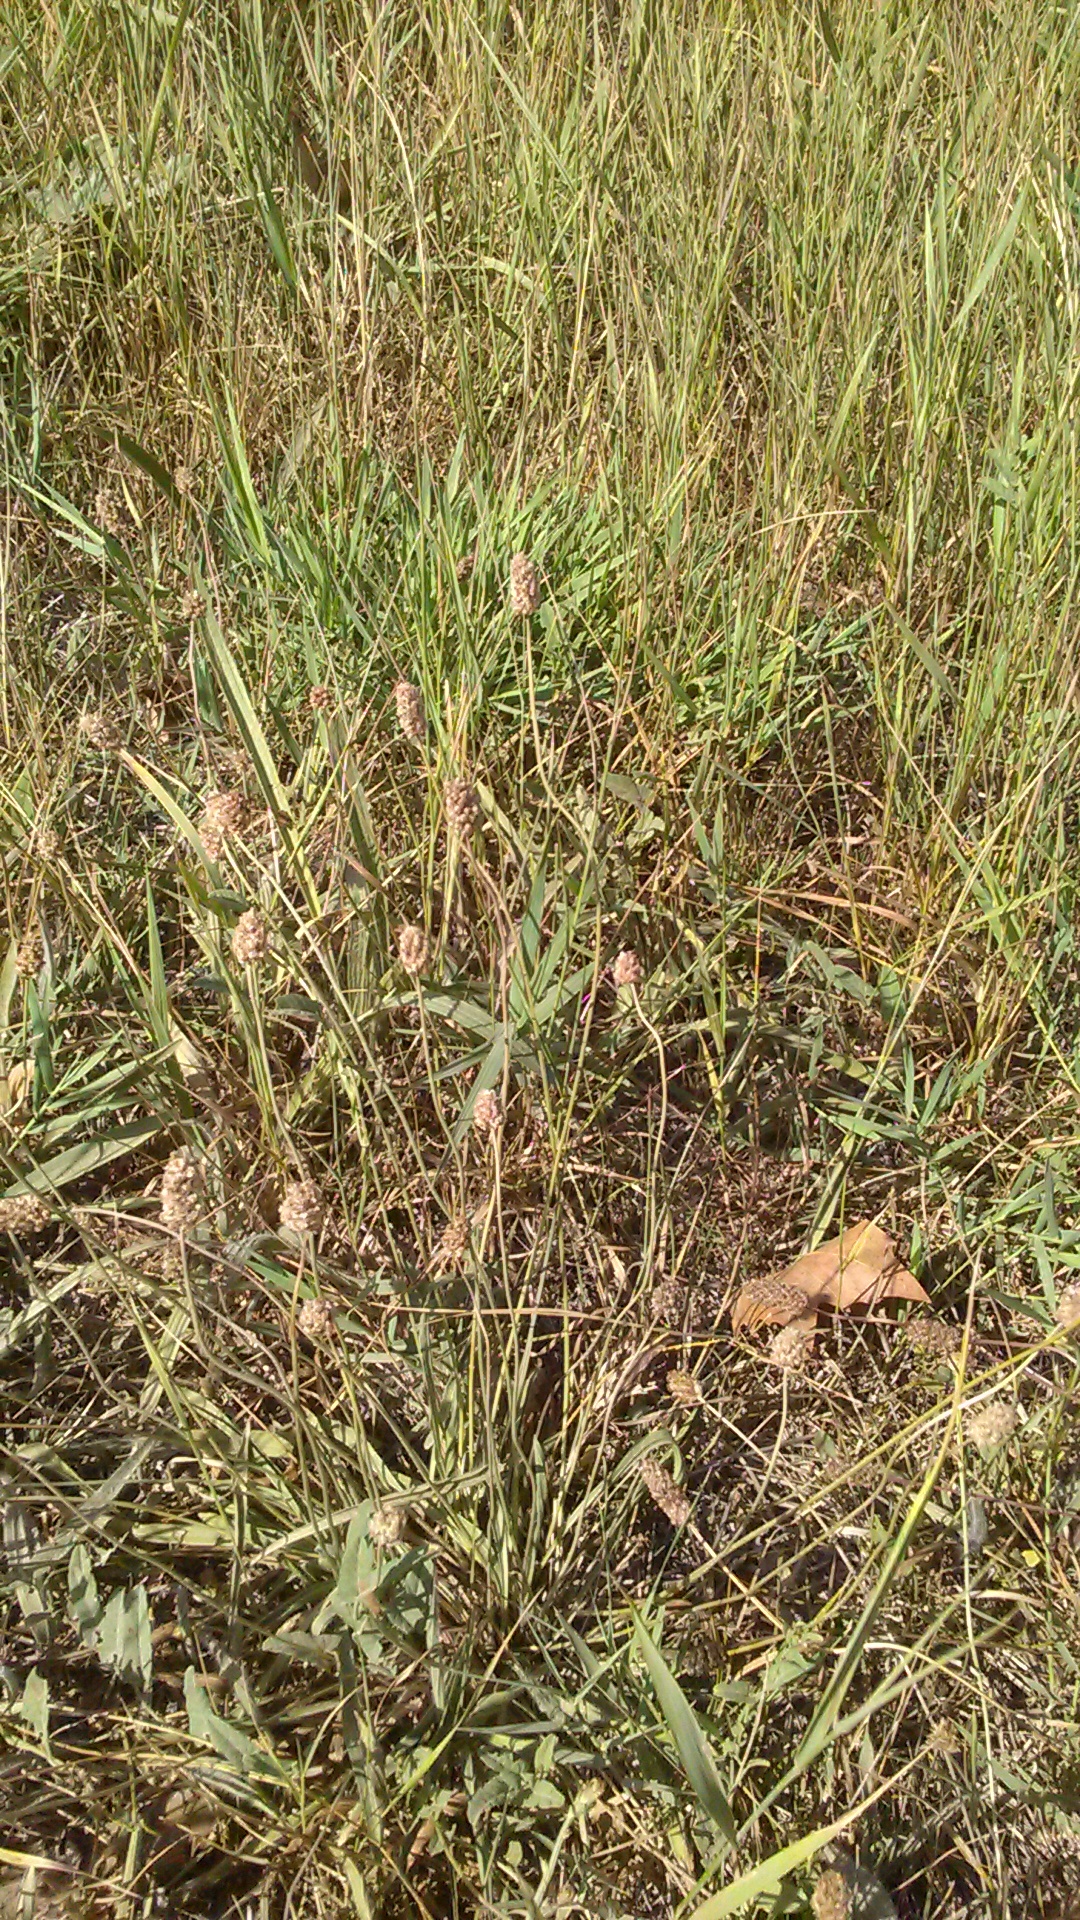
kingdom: Plantae
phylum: Tracheophyta
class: Magnoliopsida
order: Lamiales
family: Plantaginaceae
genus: Plantago
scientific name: Plantago lanceolata
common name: Ribwort plantain
